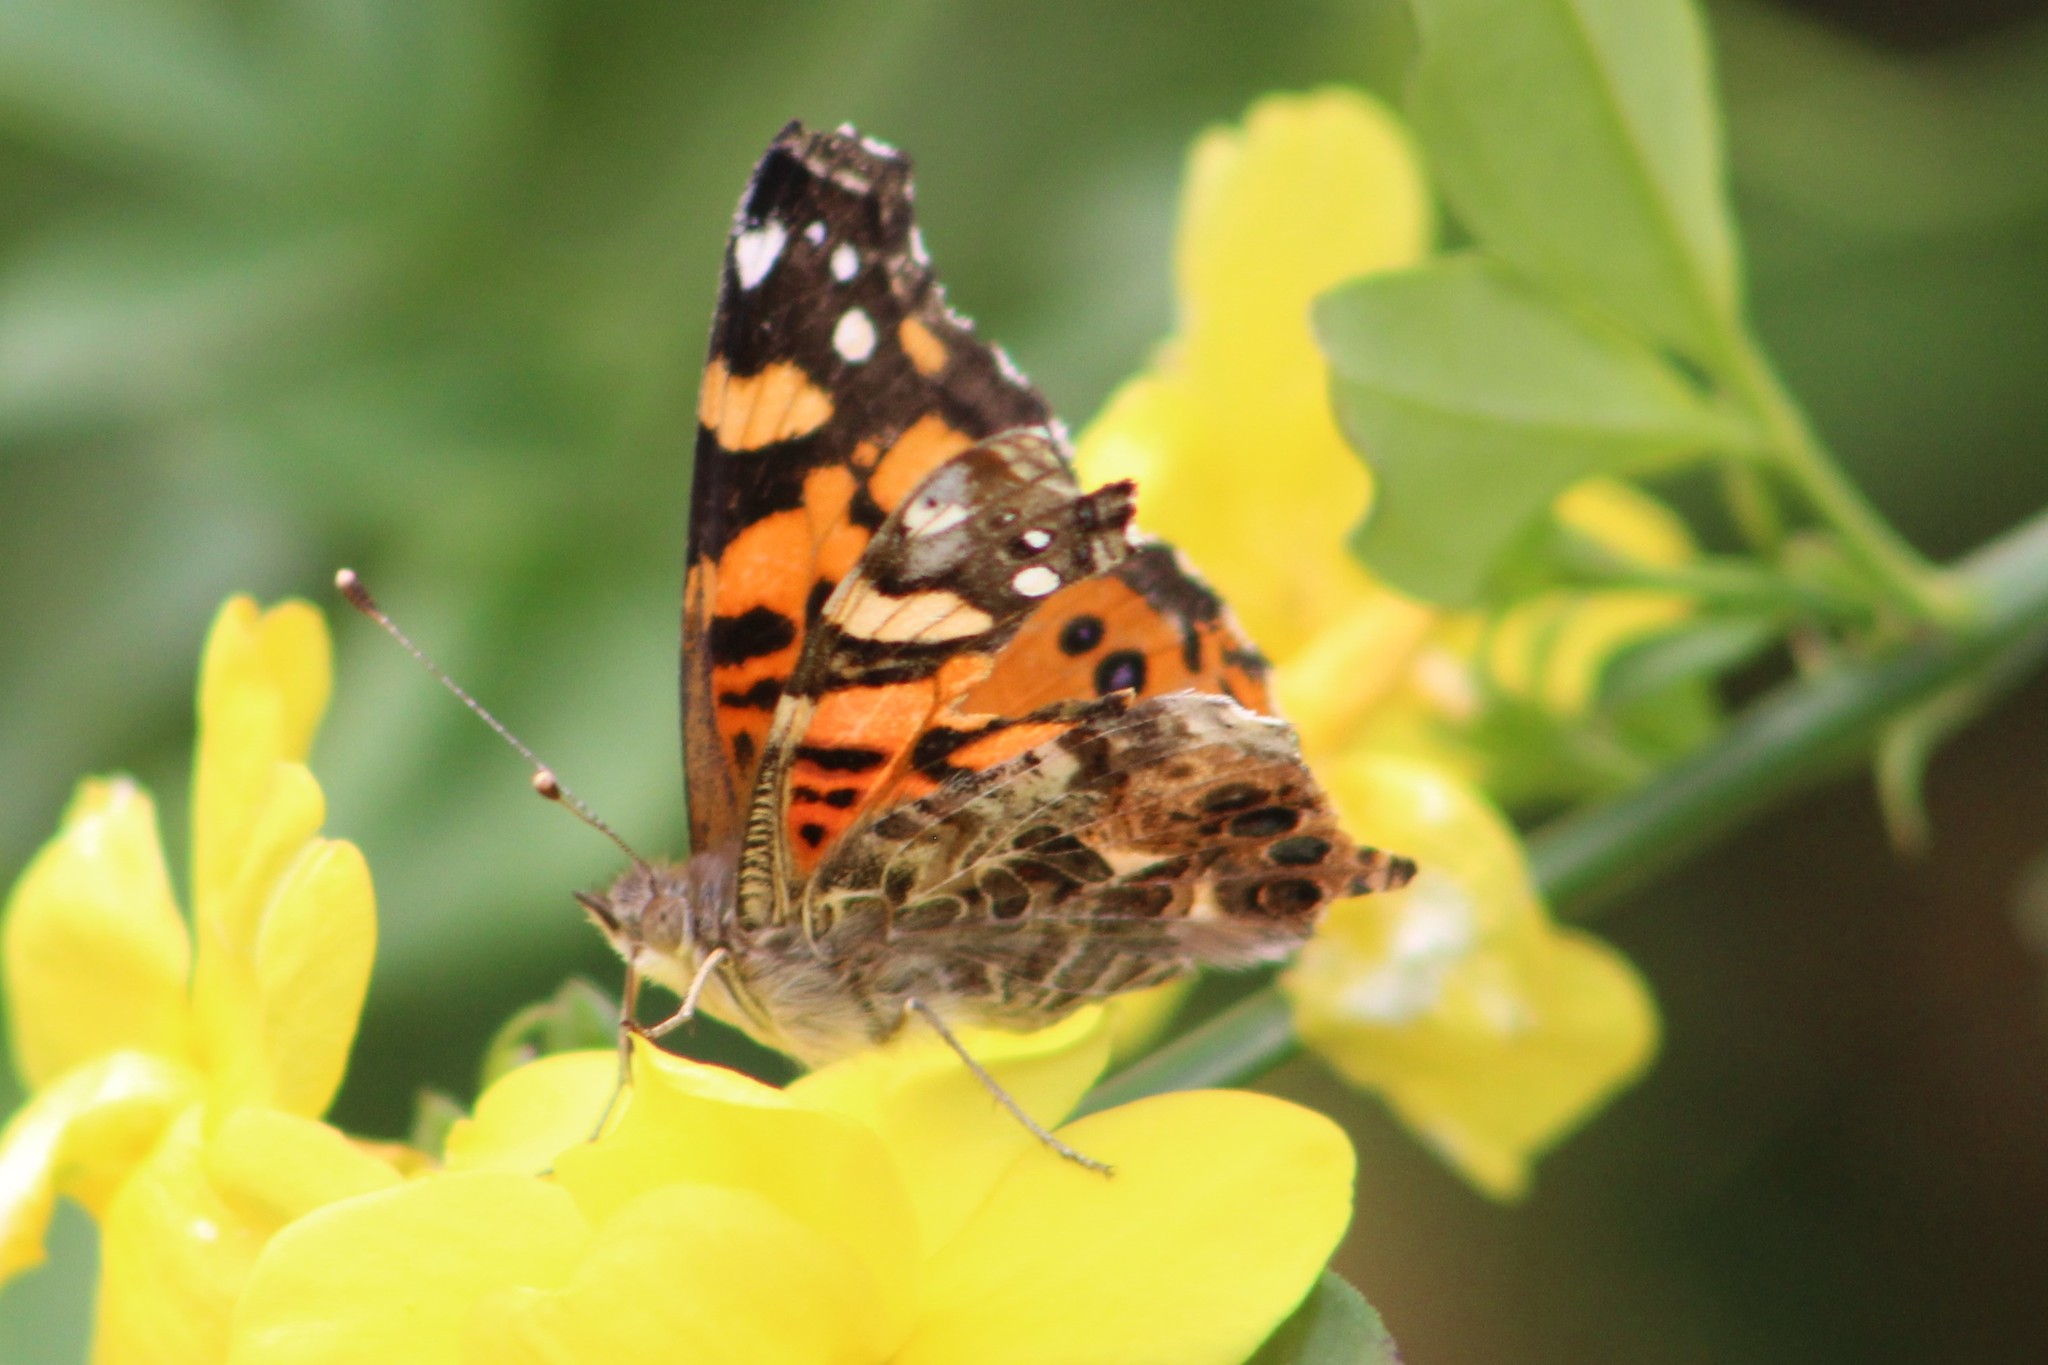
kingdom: Animalia
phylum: Arthropoda
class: Insecta
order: Lepidoptera
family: Nymphalidae
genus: Vanessa
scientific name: Vanessa annabella
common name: West coast lady
